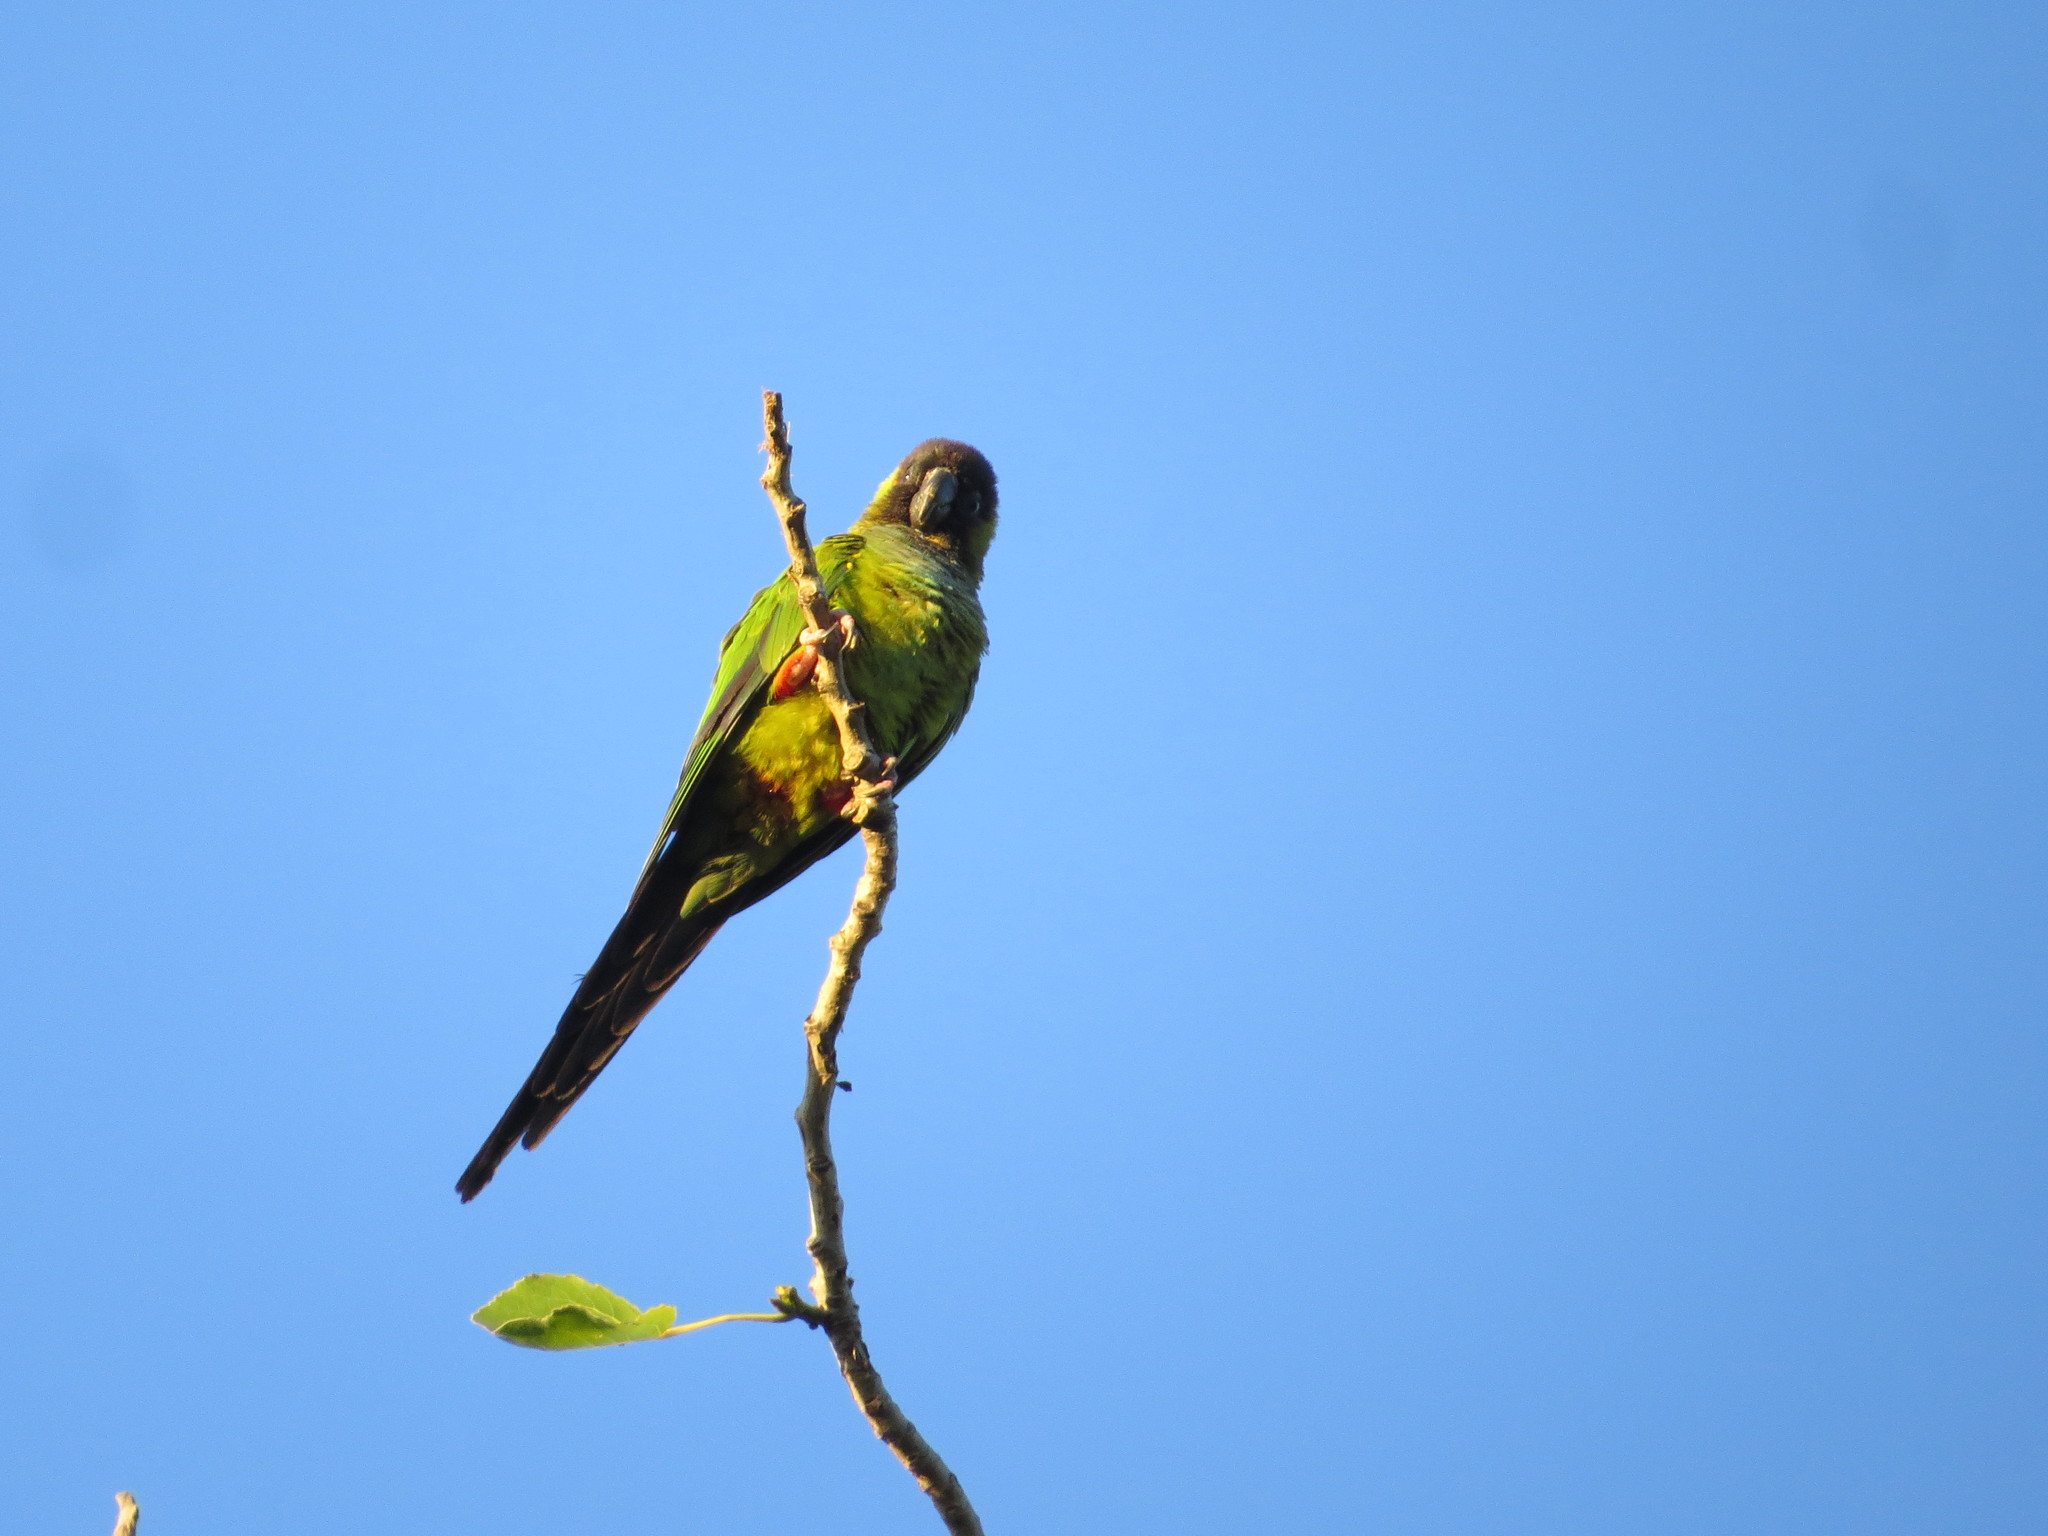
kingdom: Animalia
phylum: Chordata
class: Aves
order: Psittaciformes
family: Psittacidae
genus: Nandayus
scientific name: Nandayus nenday
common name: Nanday parakeet
